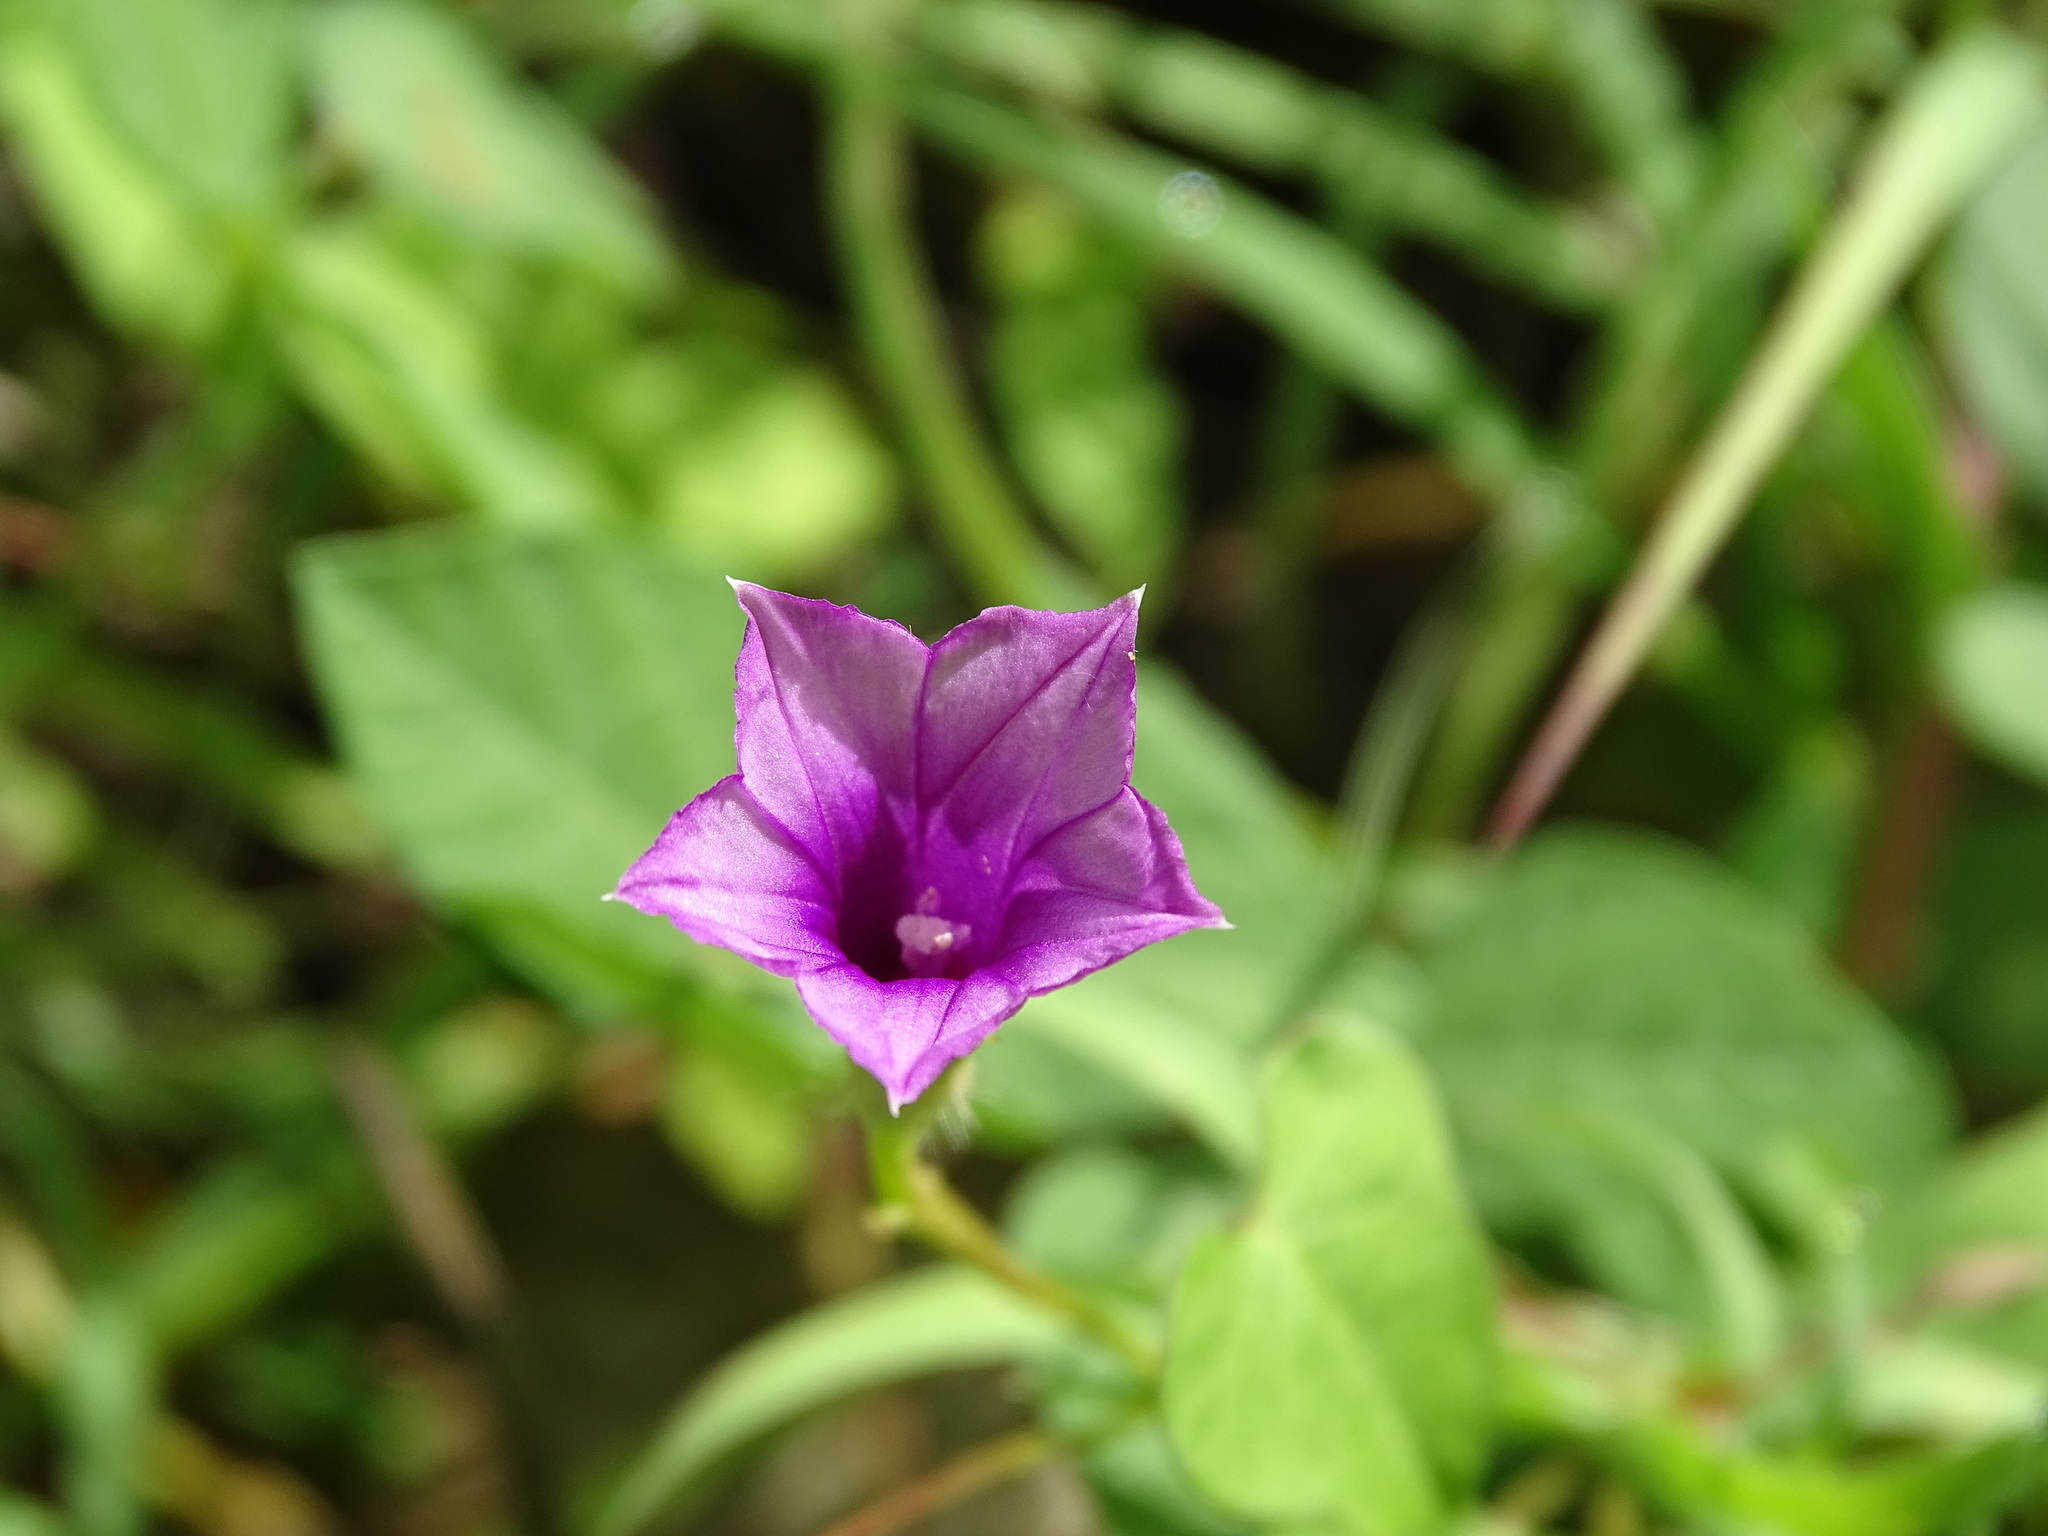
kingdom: Plantae
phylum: Tracheophyta
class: Magnoliopsida
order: Solanales
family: Convolvulaceae
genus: Ipomoea
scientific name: Ipomoea triloba
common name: Little-bell
